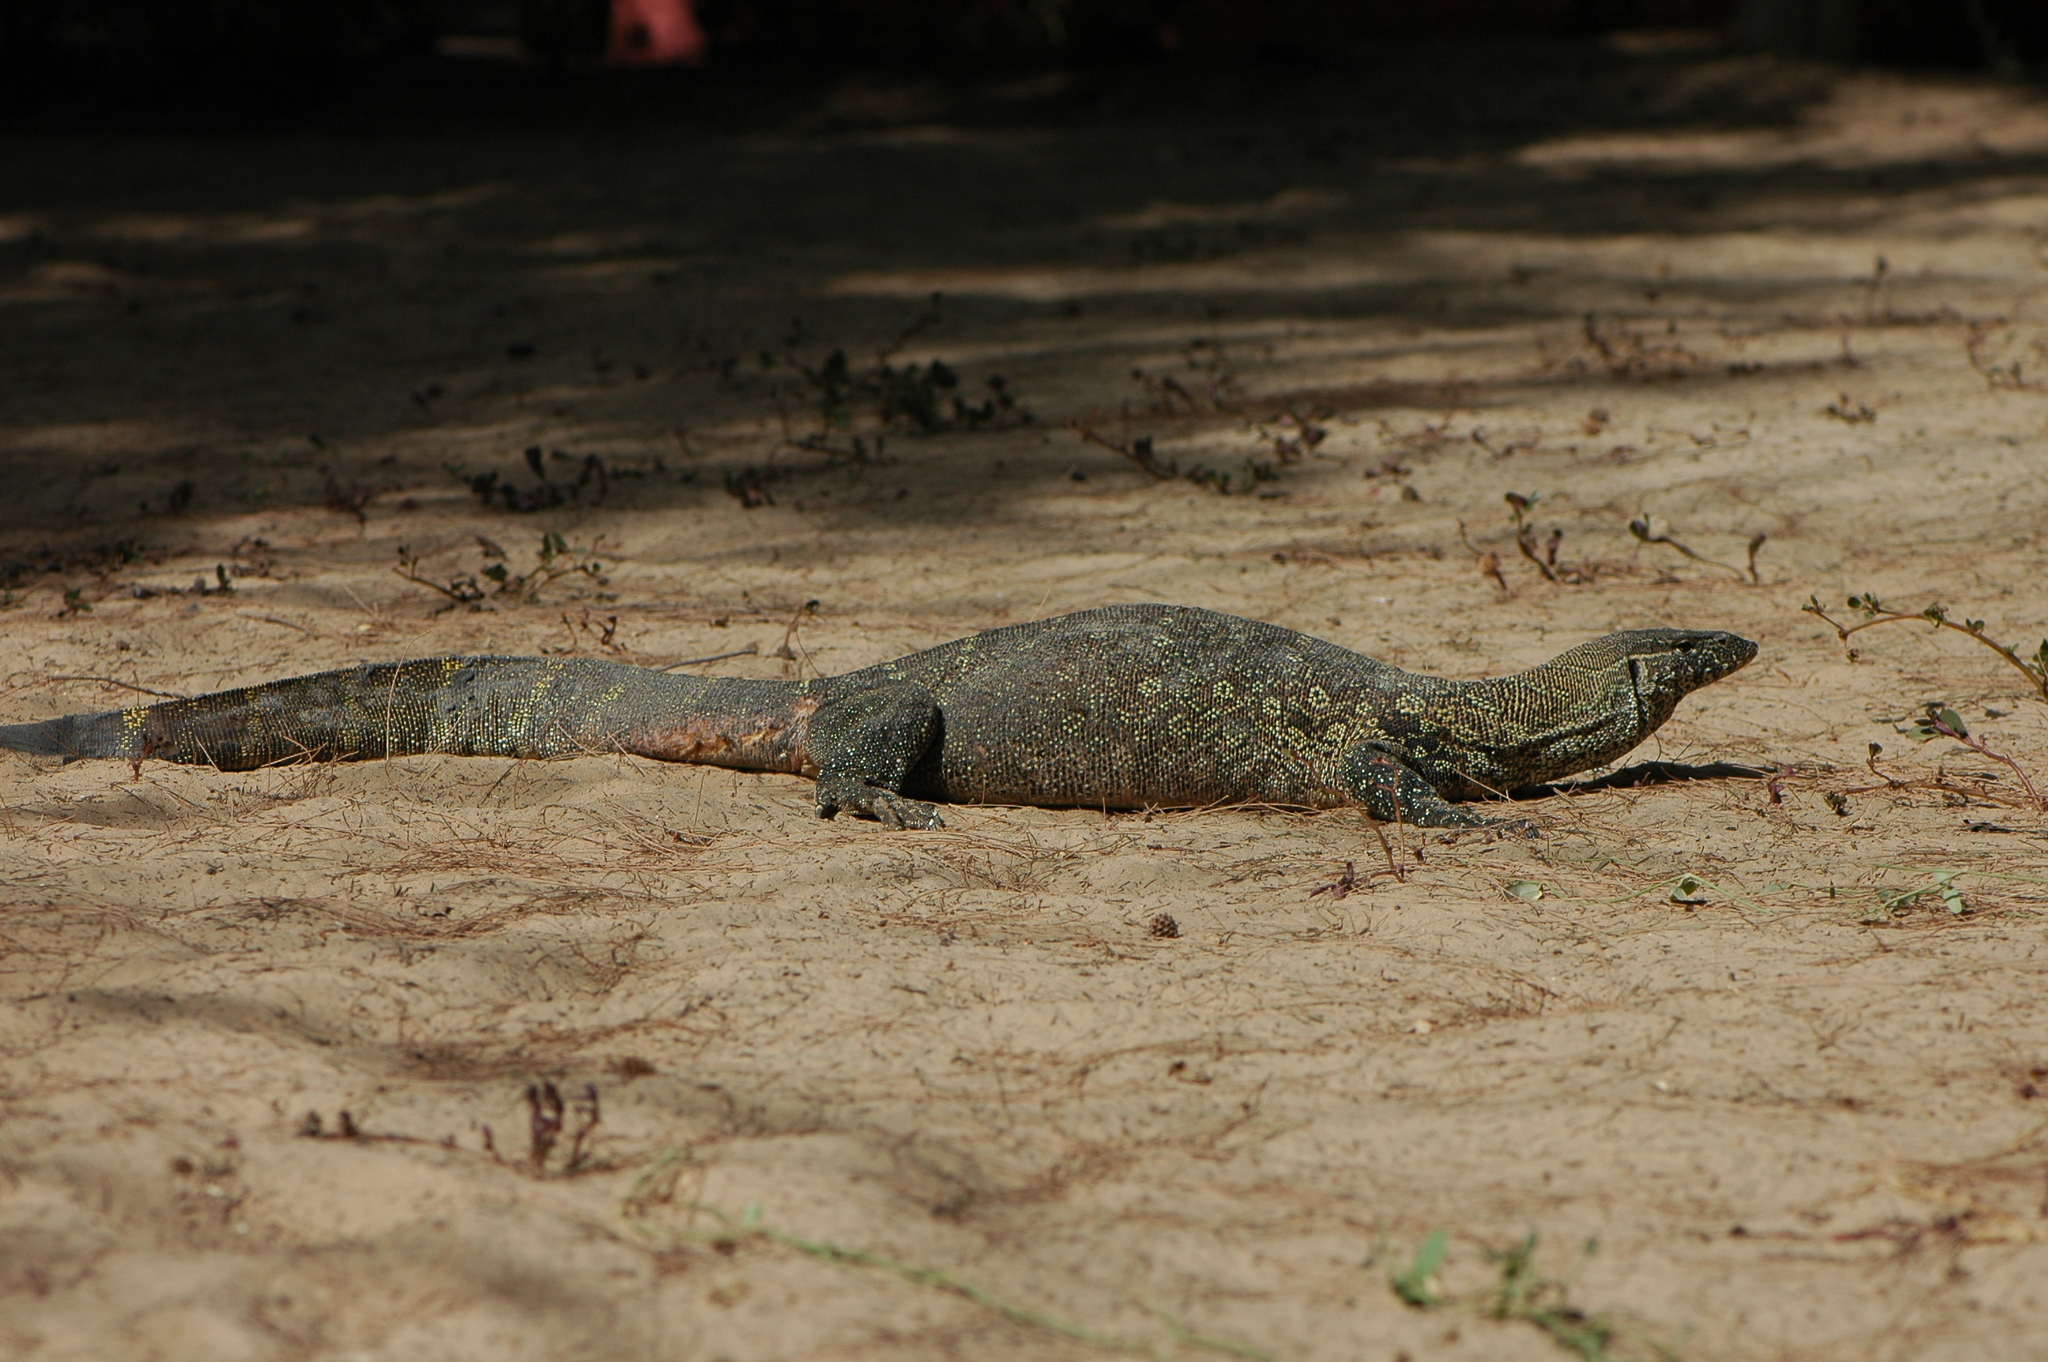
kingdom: Animalia
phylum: Chordata
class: Squamata
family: Varanidae
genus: Varanus
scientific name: Varanus niloticus
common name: Nile monitor
